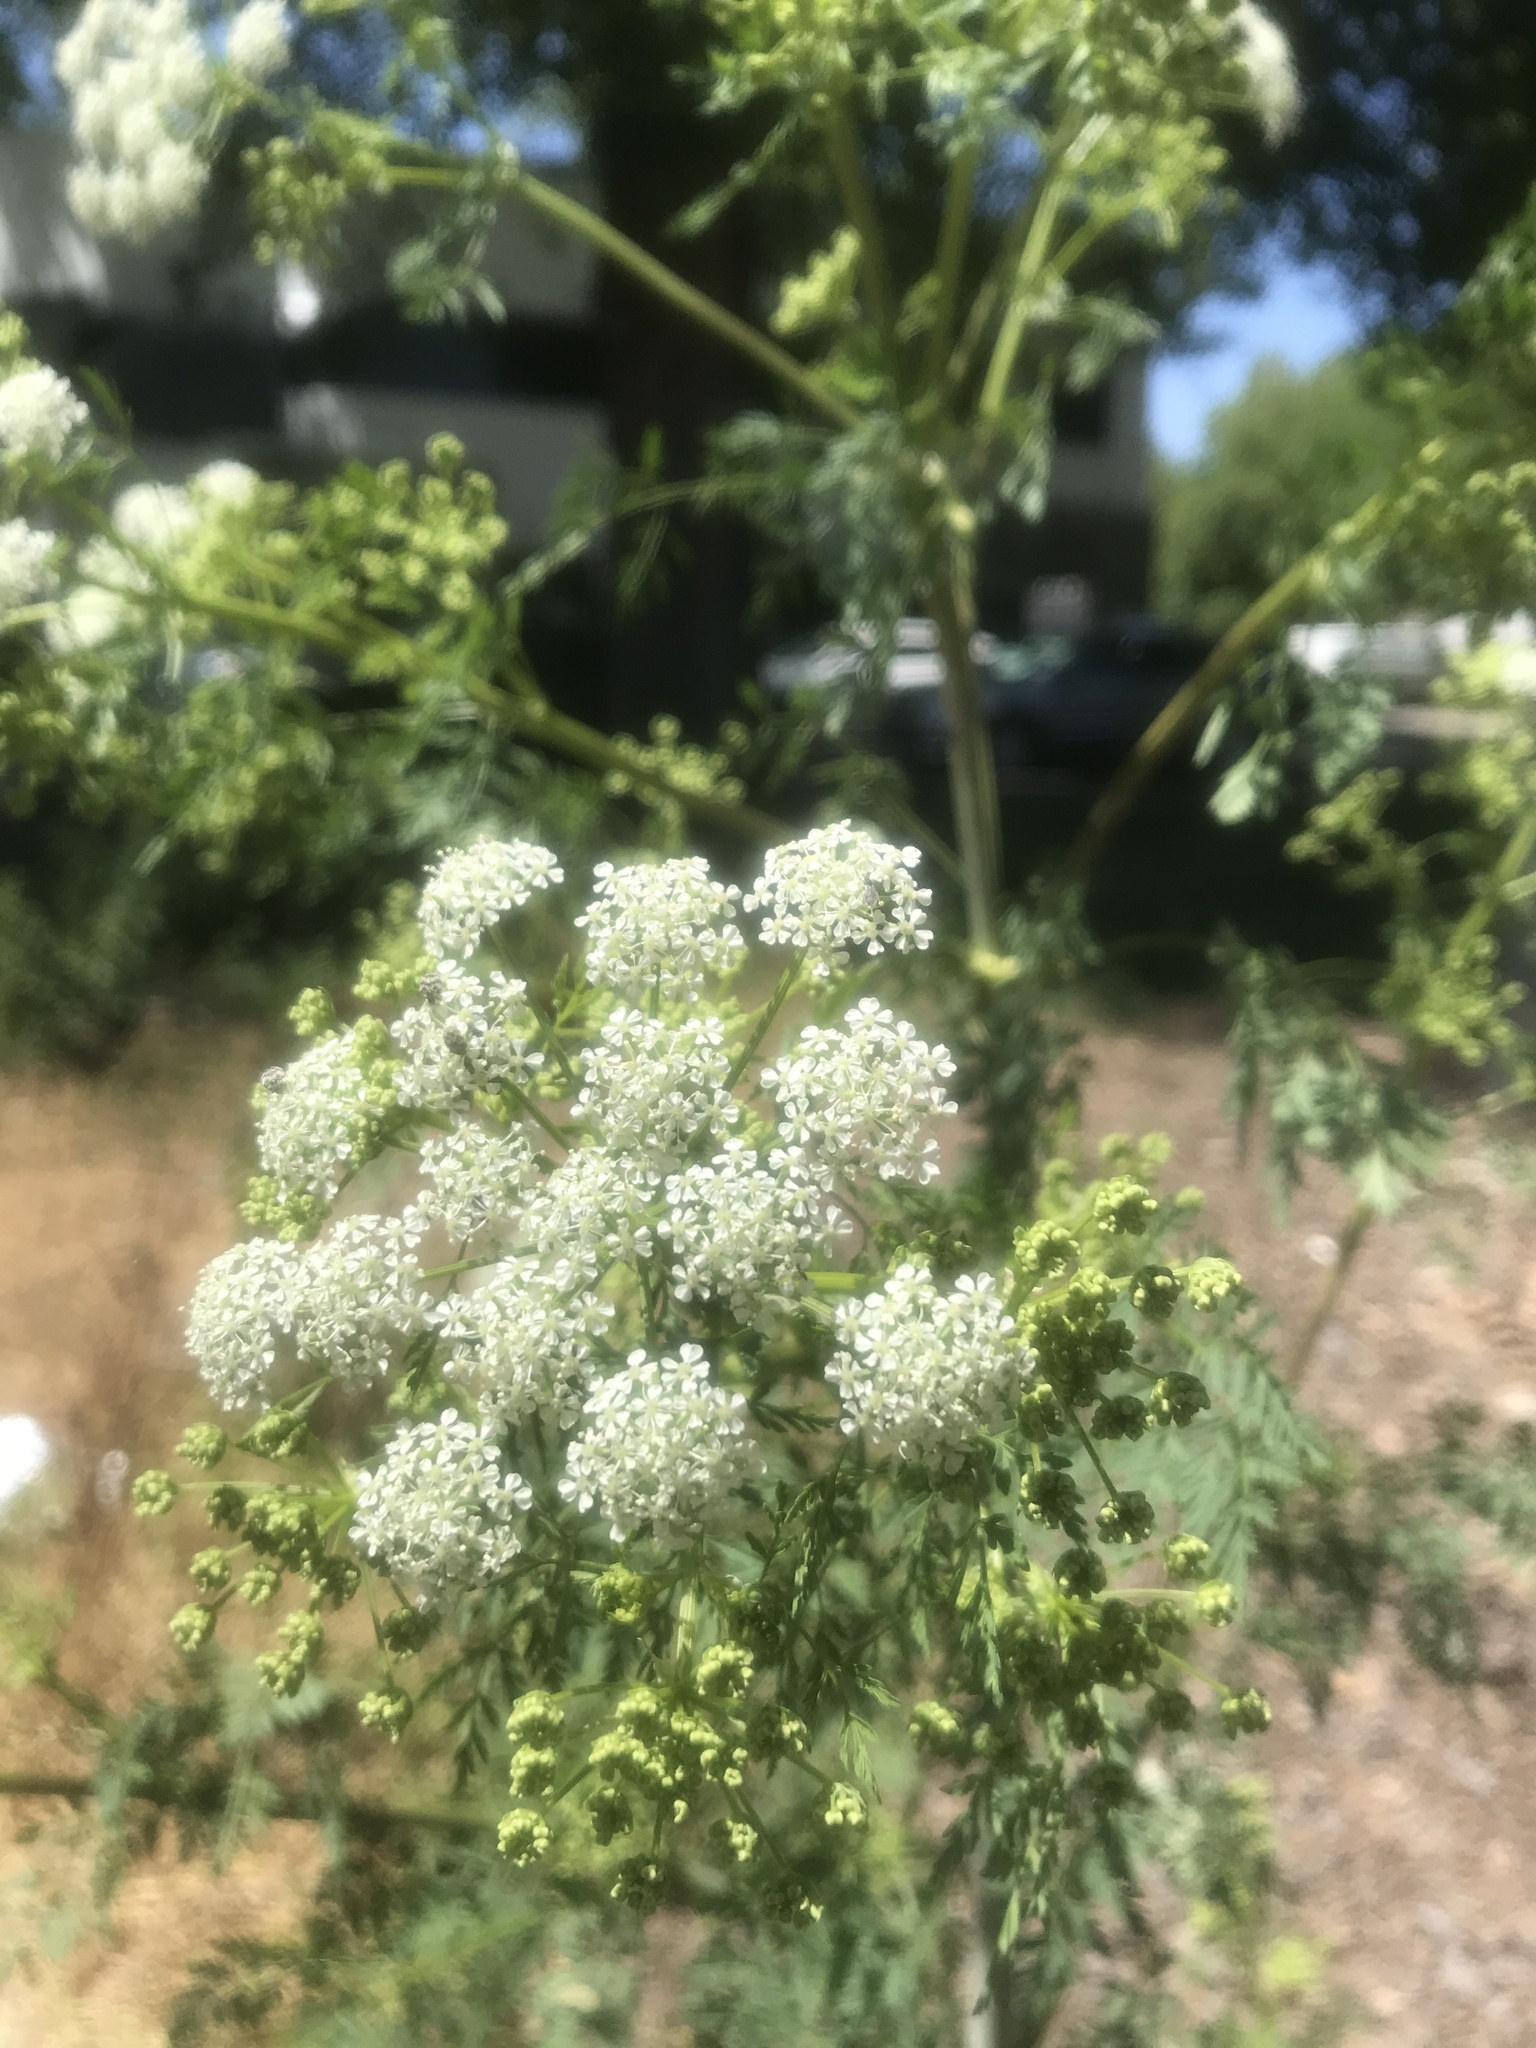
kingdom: Plantae
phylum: Tracheophyta
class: Magnoliopsida
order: Apiales
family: Apiaceae
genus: Conium
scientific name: Conium maculatum
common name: Hemlock
